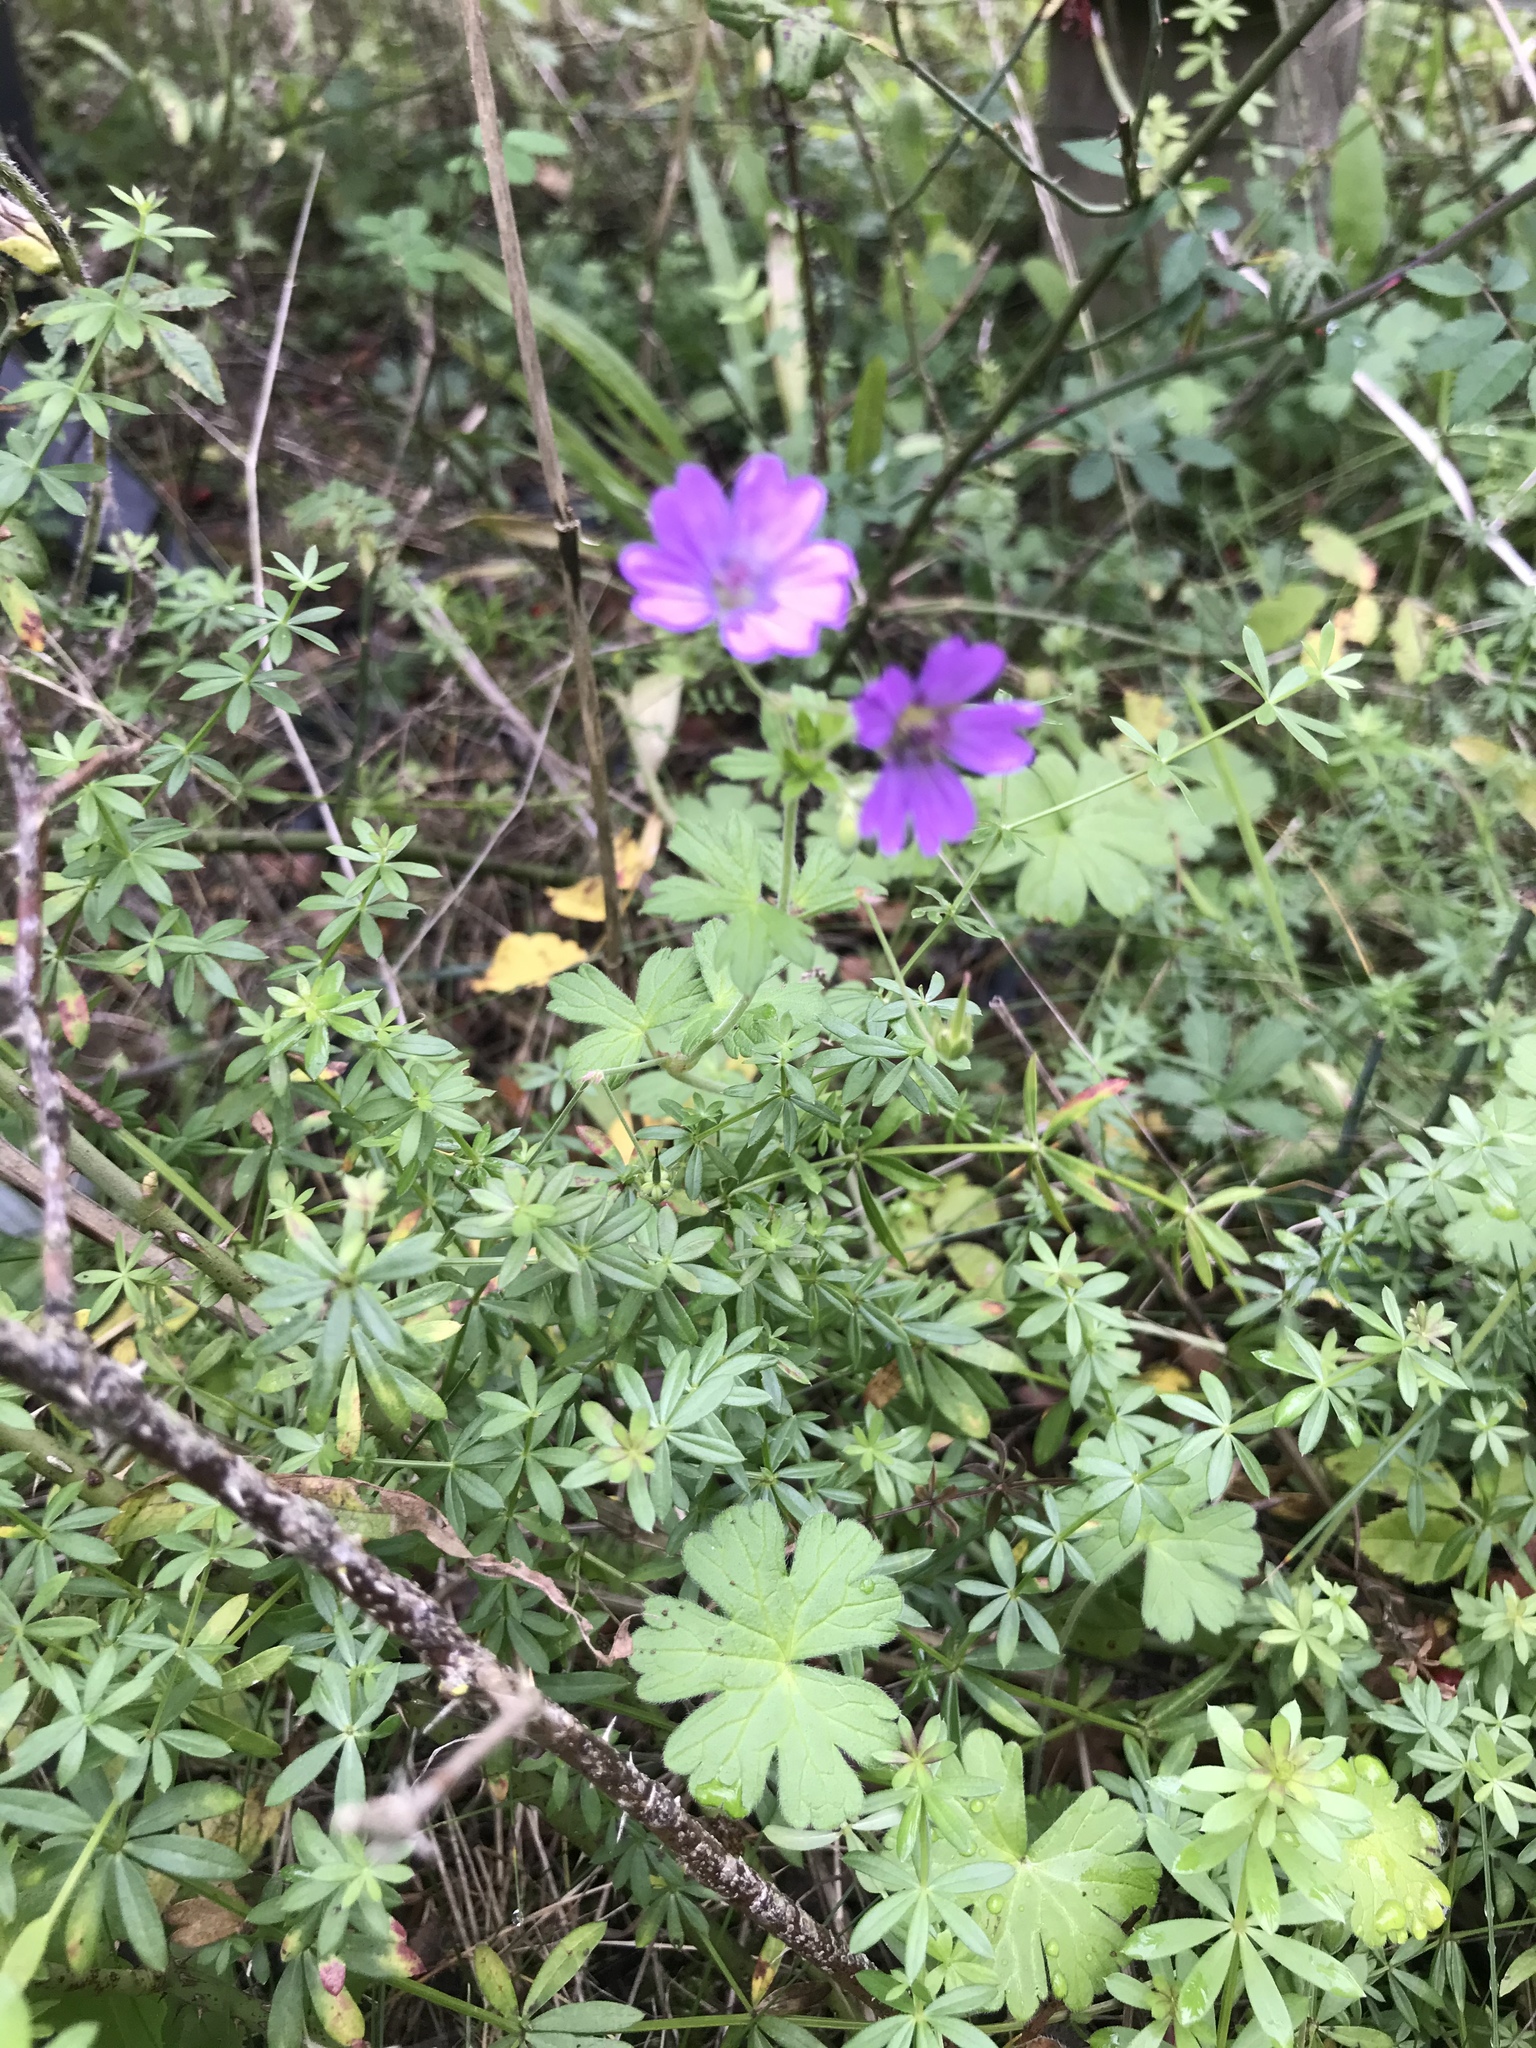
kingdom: Plantae
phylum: Tracheophyta
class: Magnoliopsida
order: Geraniales
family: Geraniaceae
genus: Geranium
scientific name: Geranium pyrenaicum
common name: Hedgerow crane's-bill
